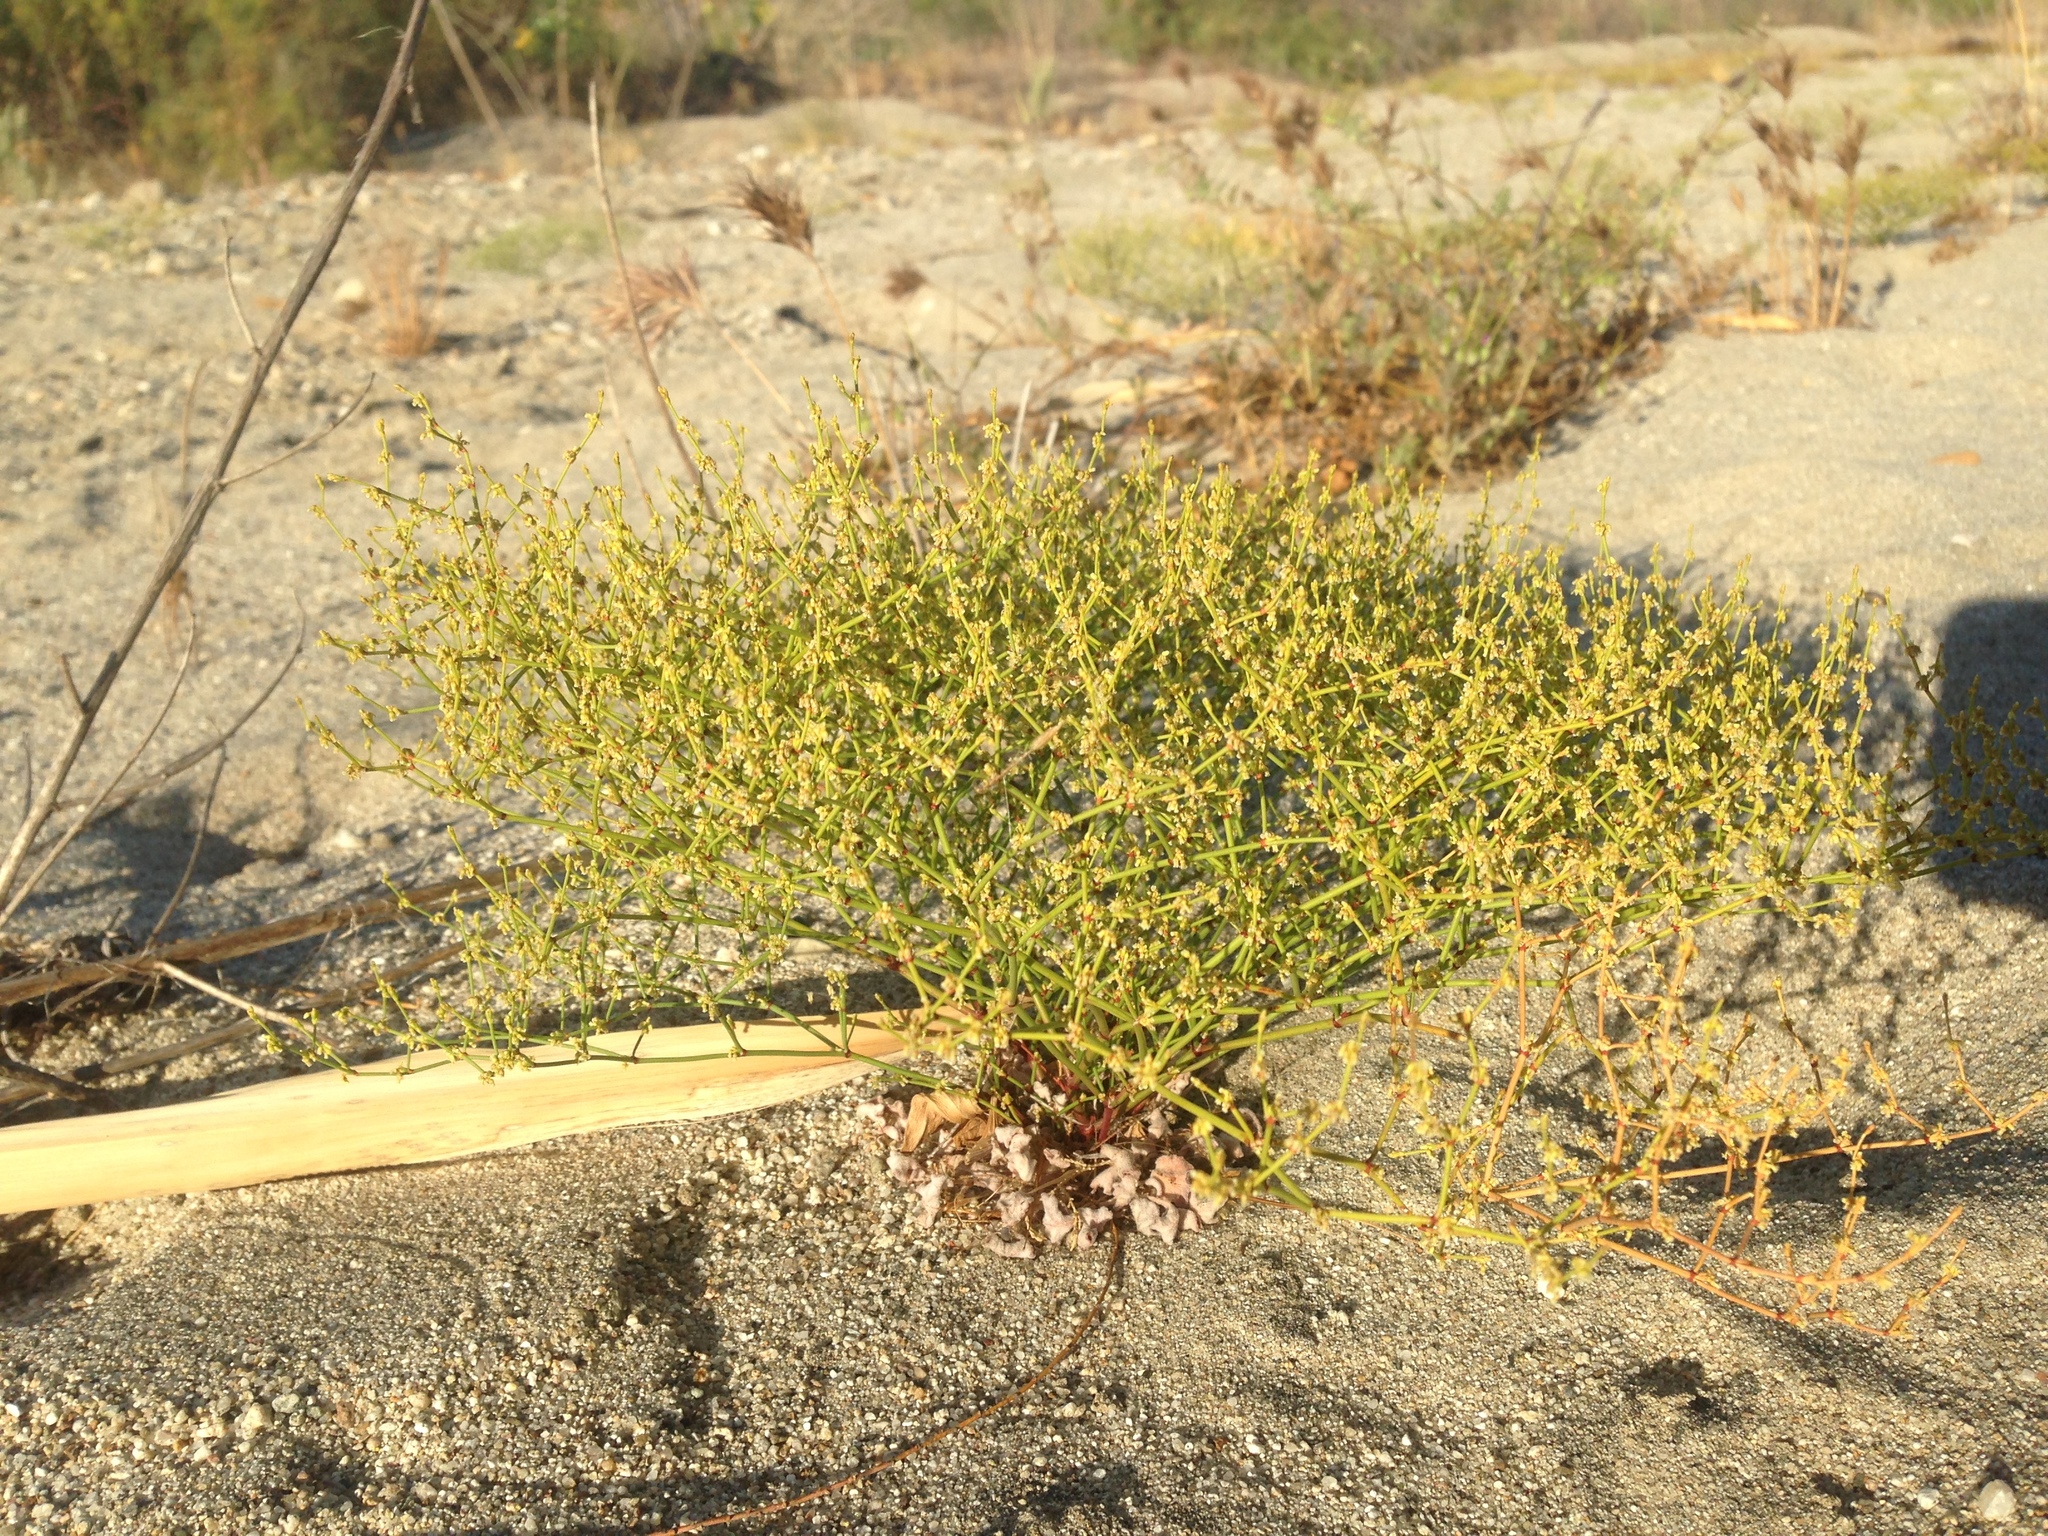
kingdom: Plantae
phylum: Tracheophyta
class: Magnoliopsida
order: Caryophyllales
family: Polygonaceae
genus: Eriogonum
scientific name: Eriogonum brachyanthum
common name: Short-flower wild buckwheat
